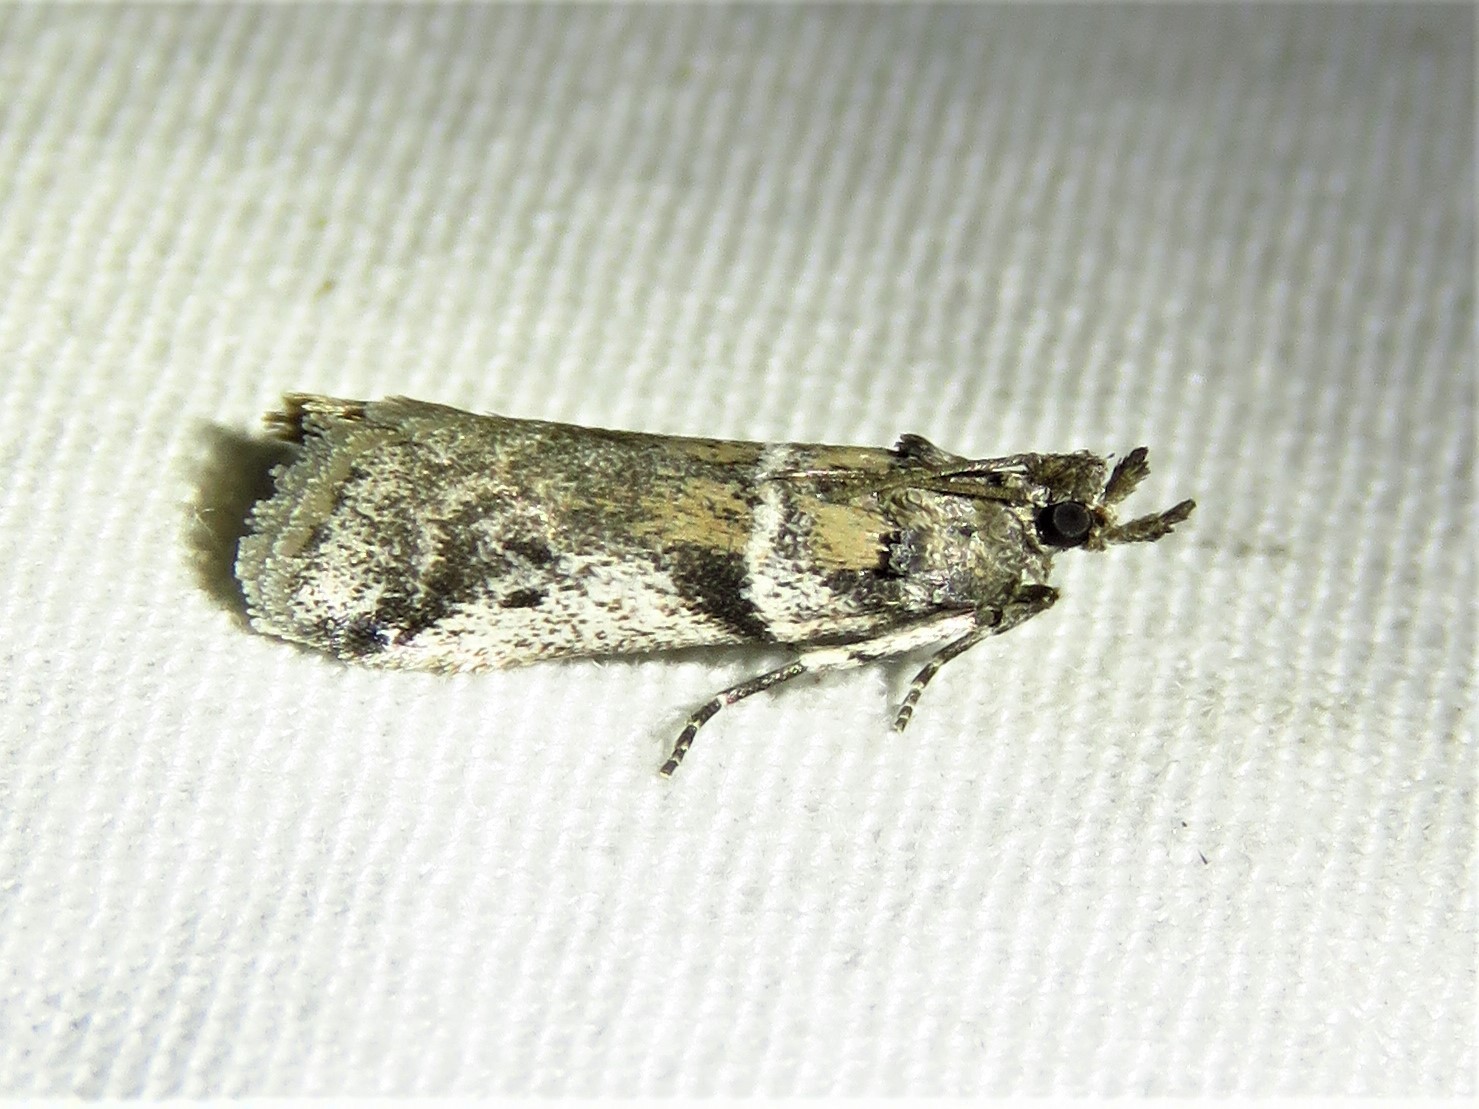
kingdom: Animalia
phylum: Arthropoda
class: Insecta
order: Lepidoptera
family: Pyralidae
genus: Laetilia
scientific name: Laetilia coccidivora
